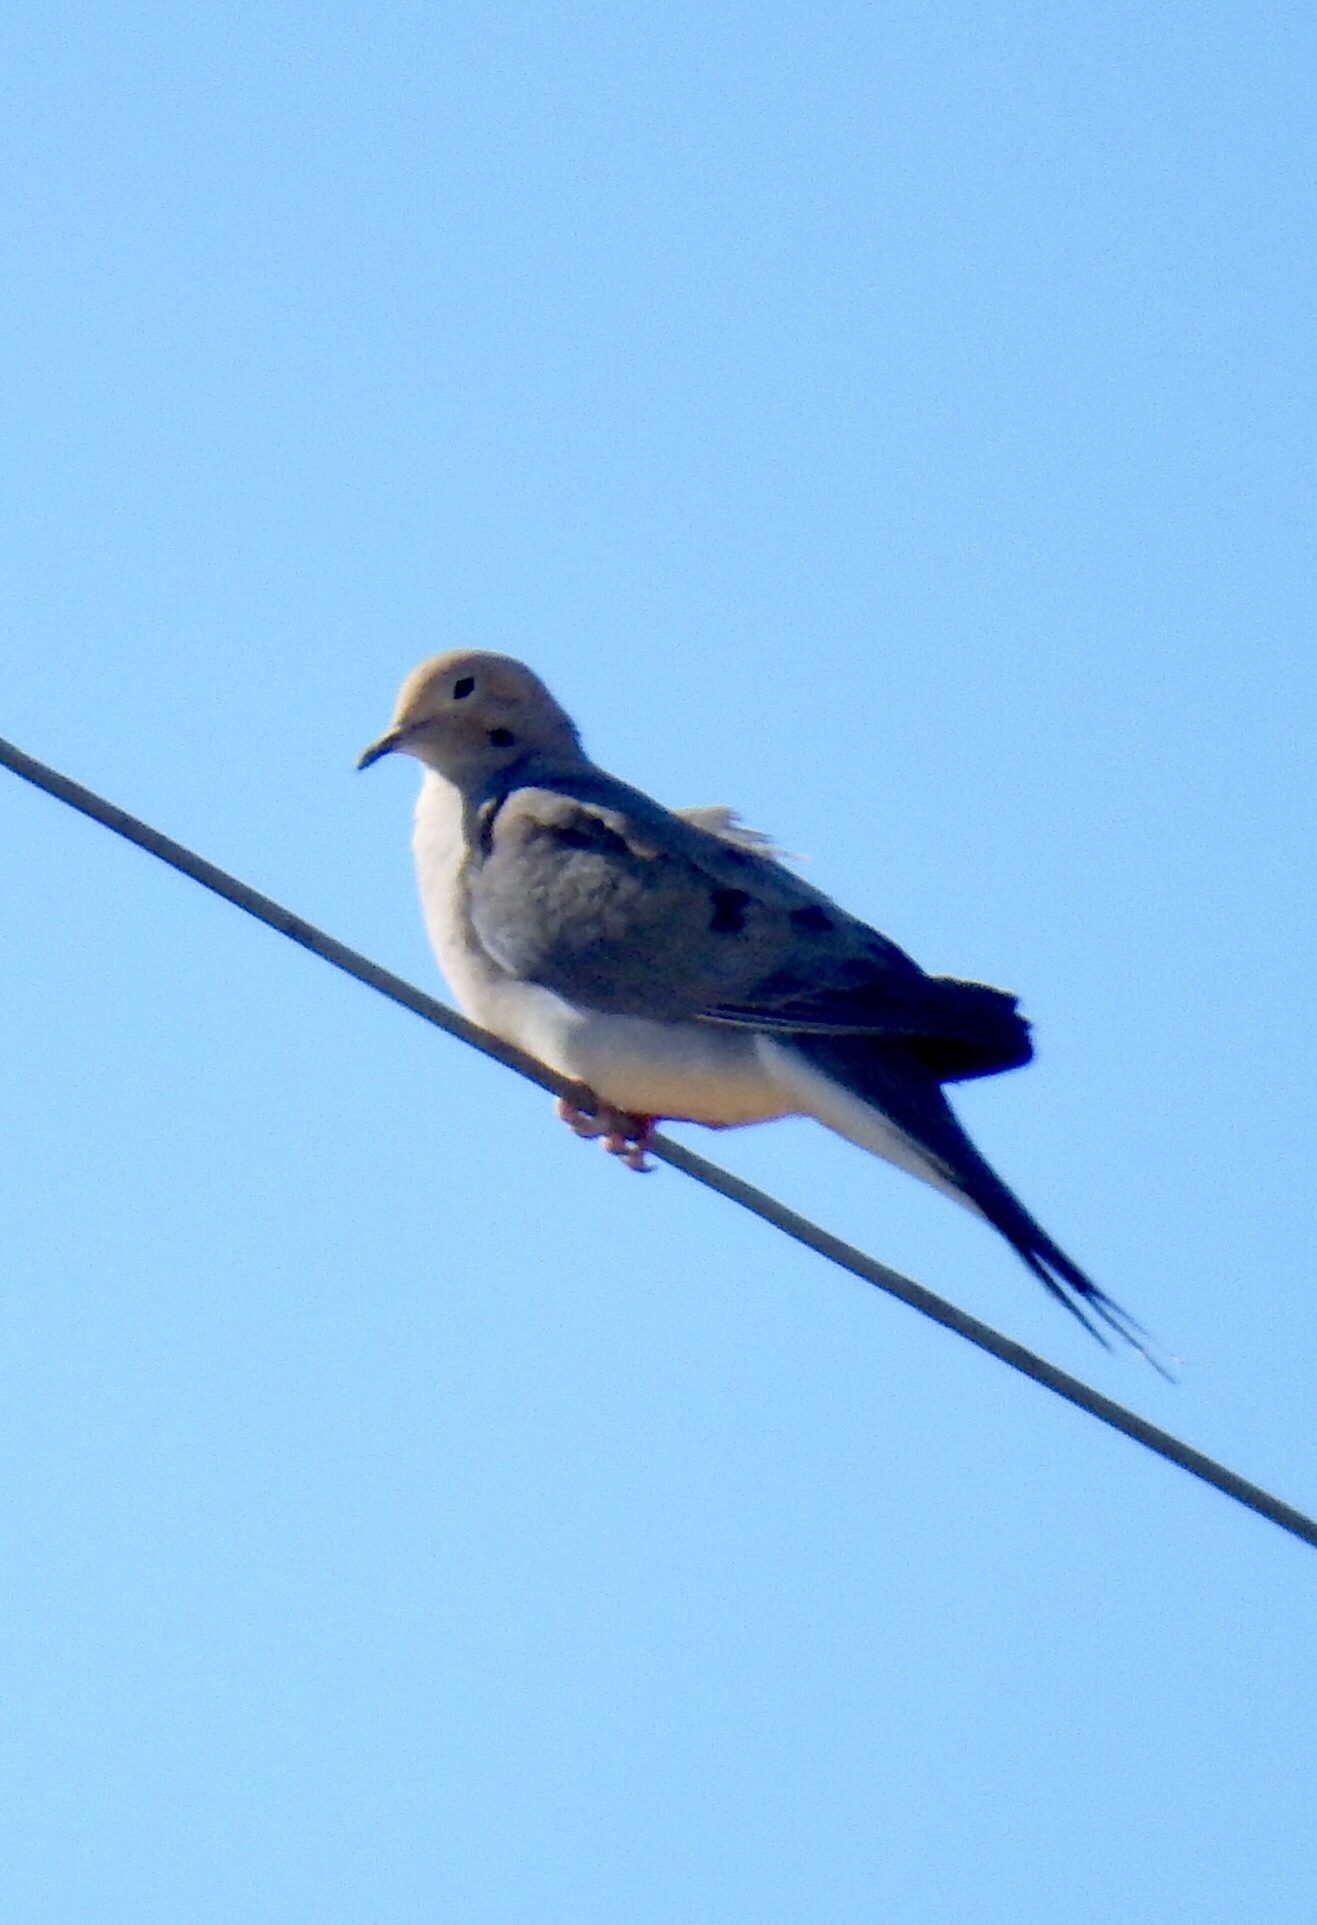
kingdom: Animalia
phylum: Chordata
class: Aves
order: Columbiformes
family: Columbidae
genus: Zenaida
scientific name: Zenaida macroura
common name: Mourning dove
